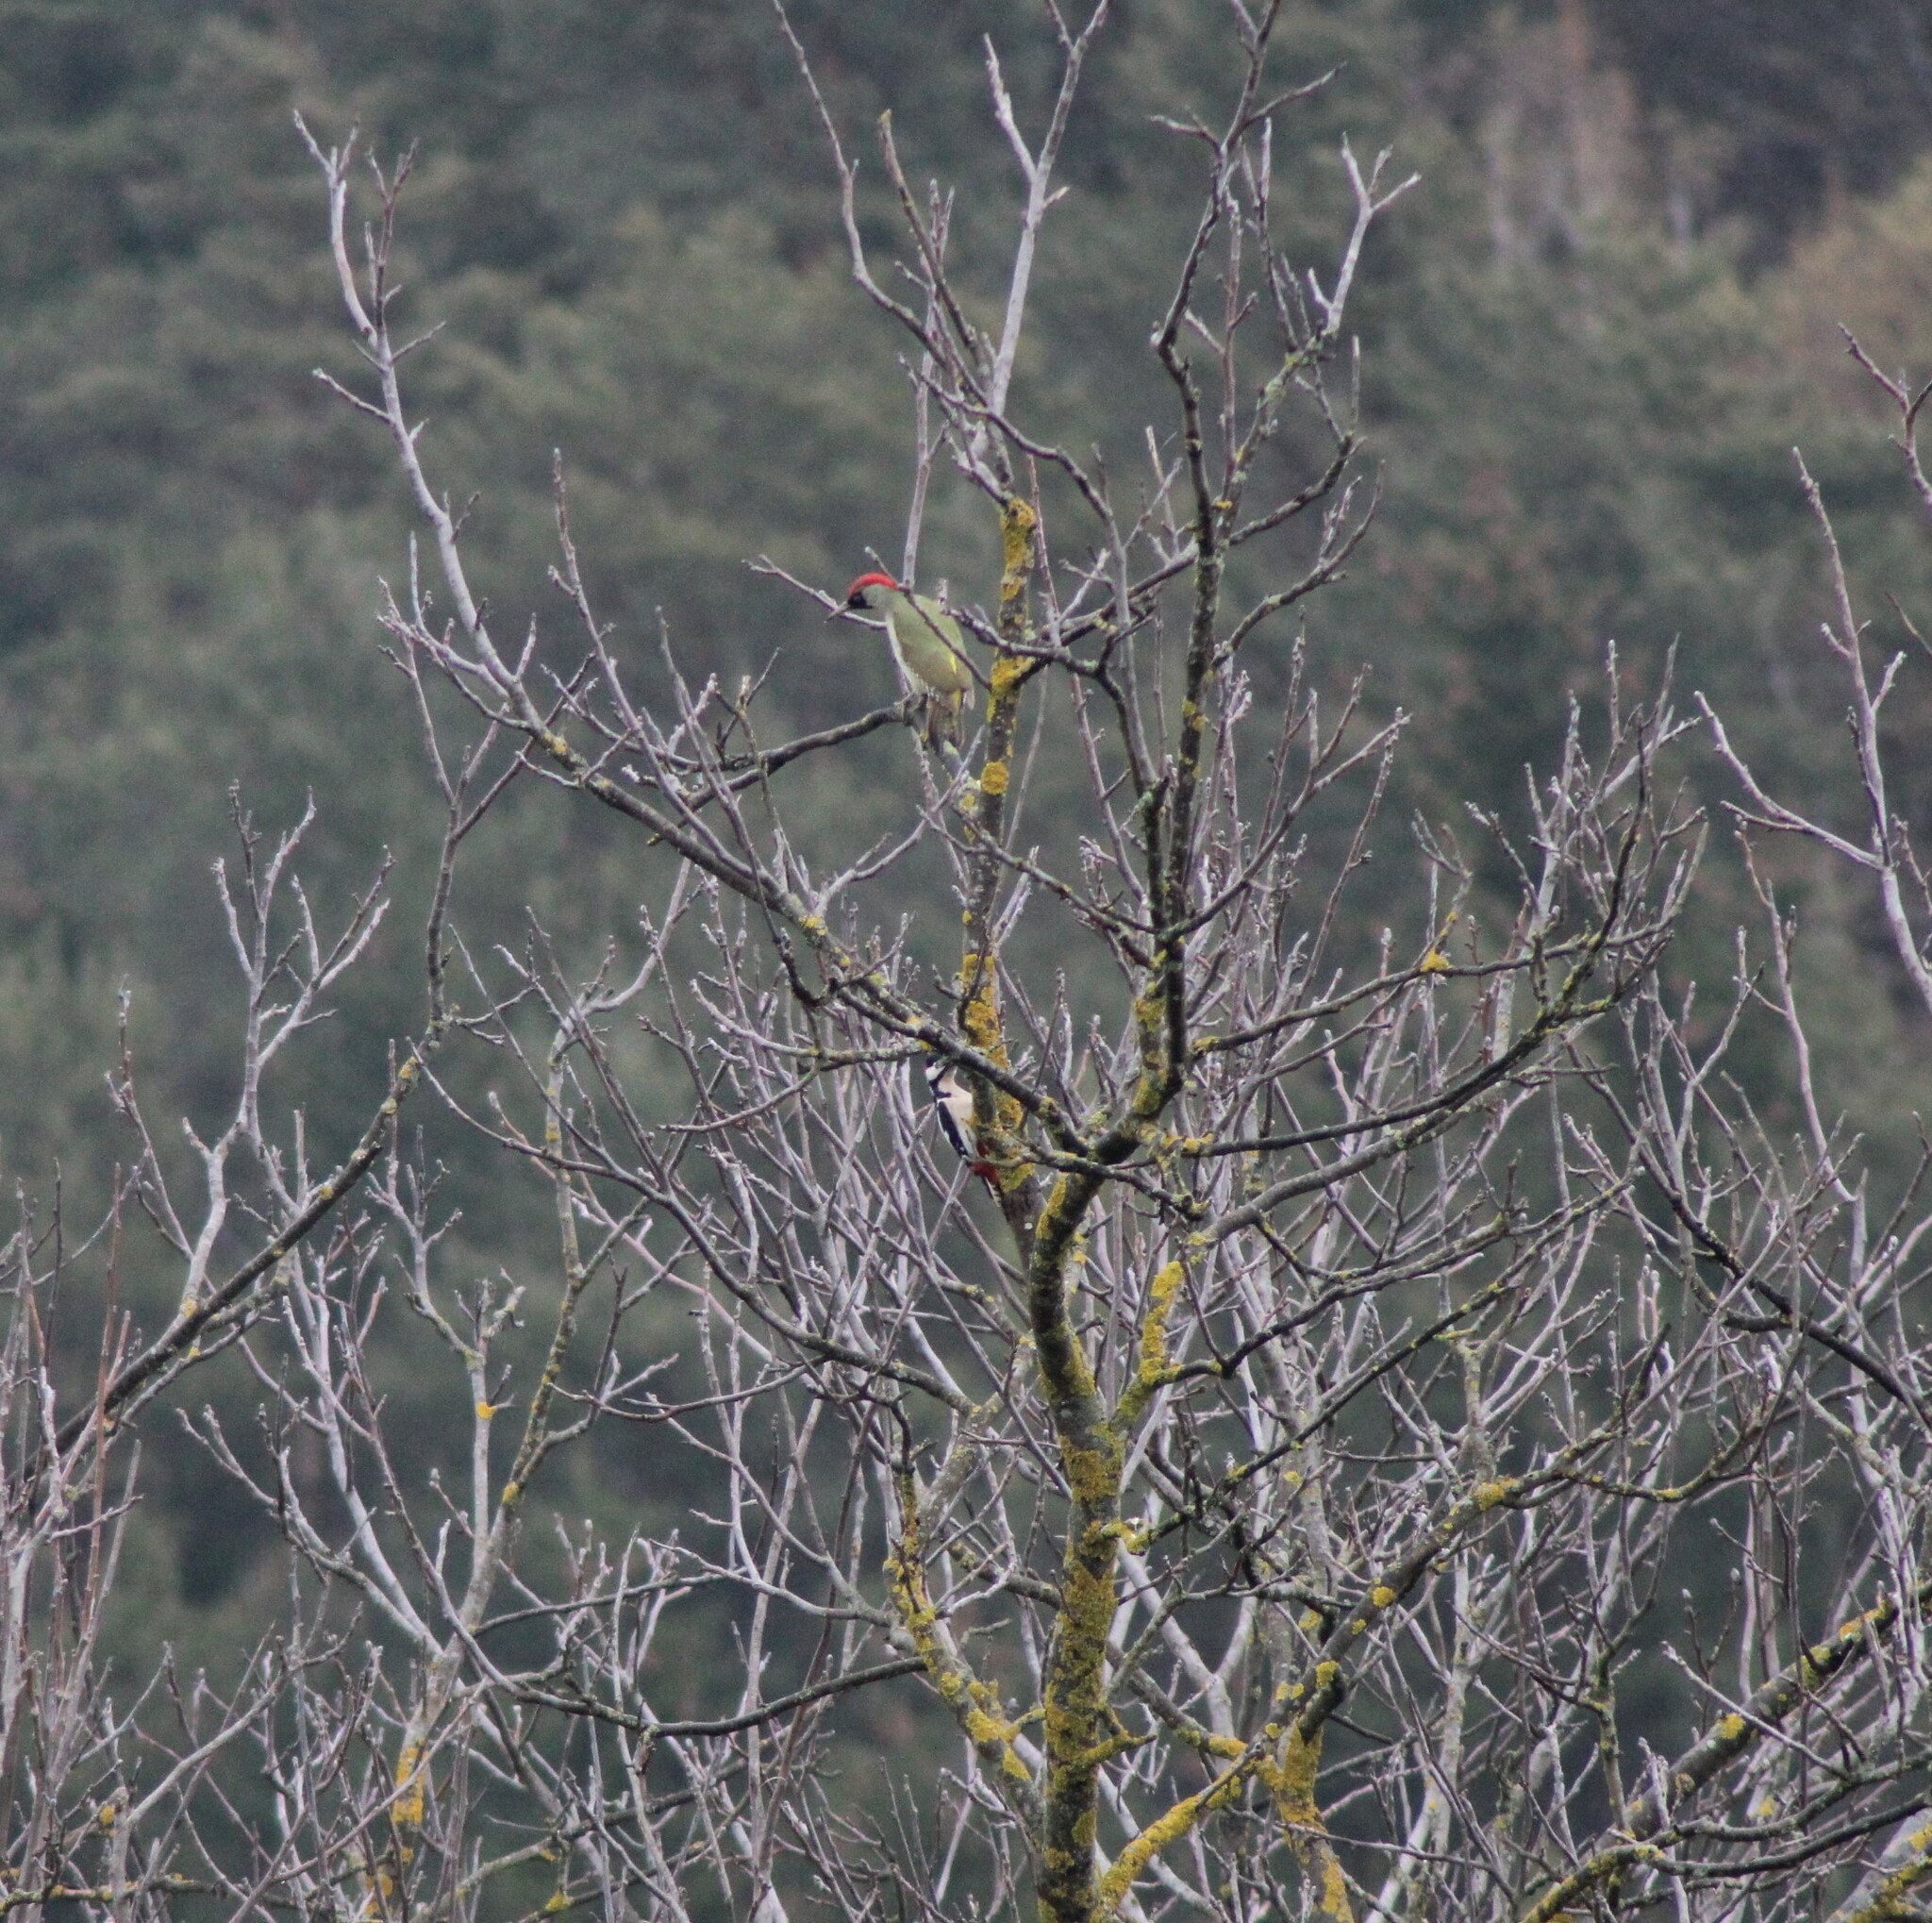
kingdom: Animalia
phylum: Chordata
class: Aves
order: Piciformes
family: Picidae
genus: Picus
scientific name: Picus viridis
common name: European green woodpecker
